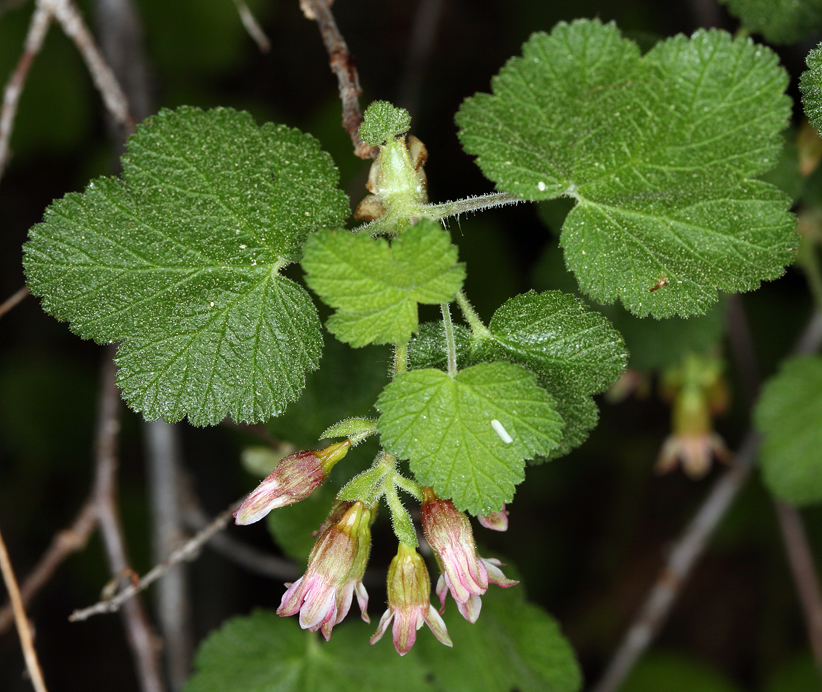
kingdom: Plantae
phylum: Tracheophyta
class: Magnoliopsida
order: Saxifragales
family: Grossulariaceae
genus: Ribes
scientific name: Ribes viscosissimum
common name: Sticky currant
